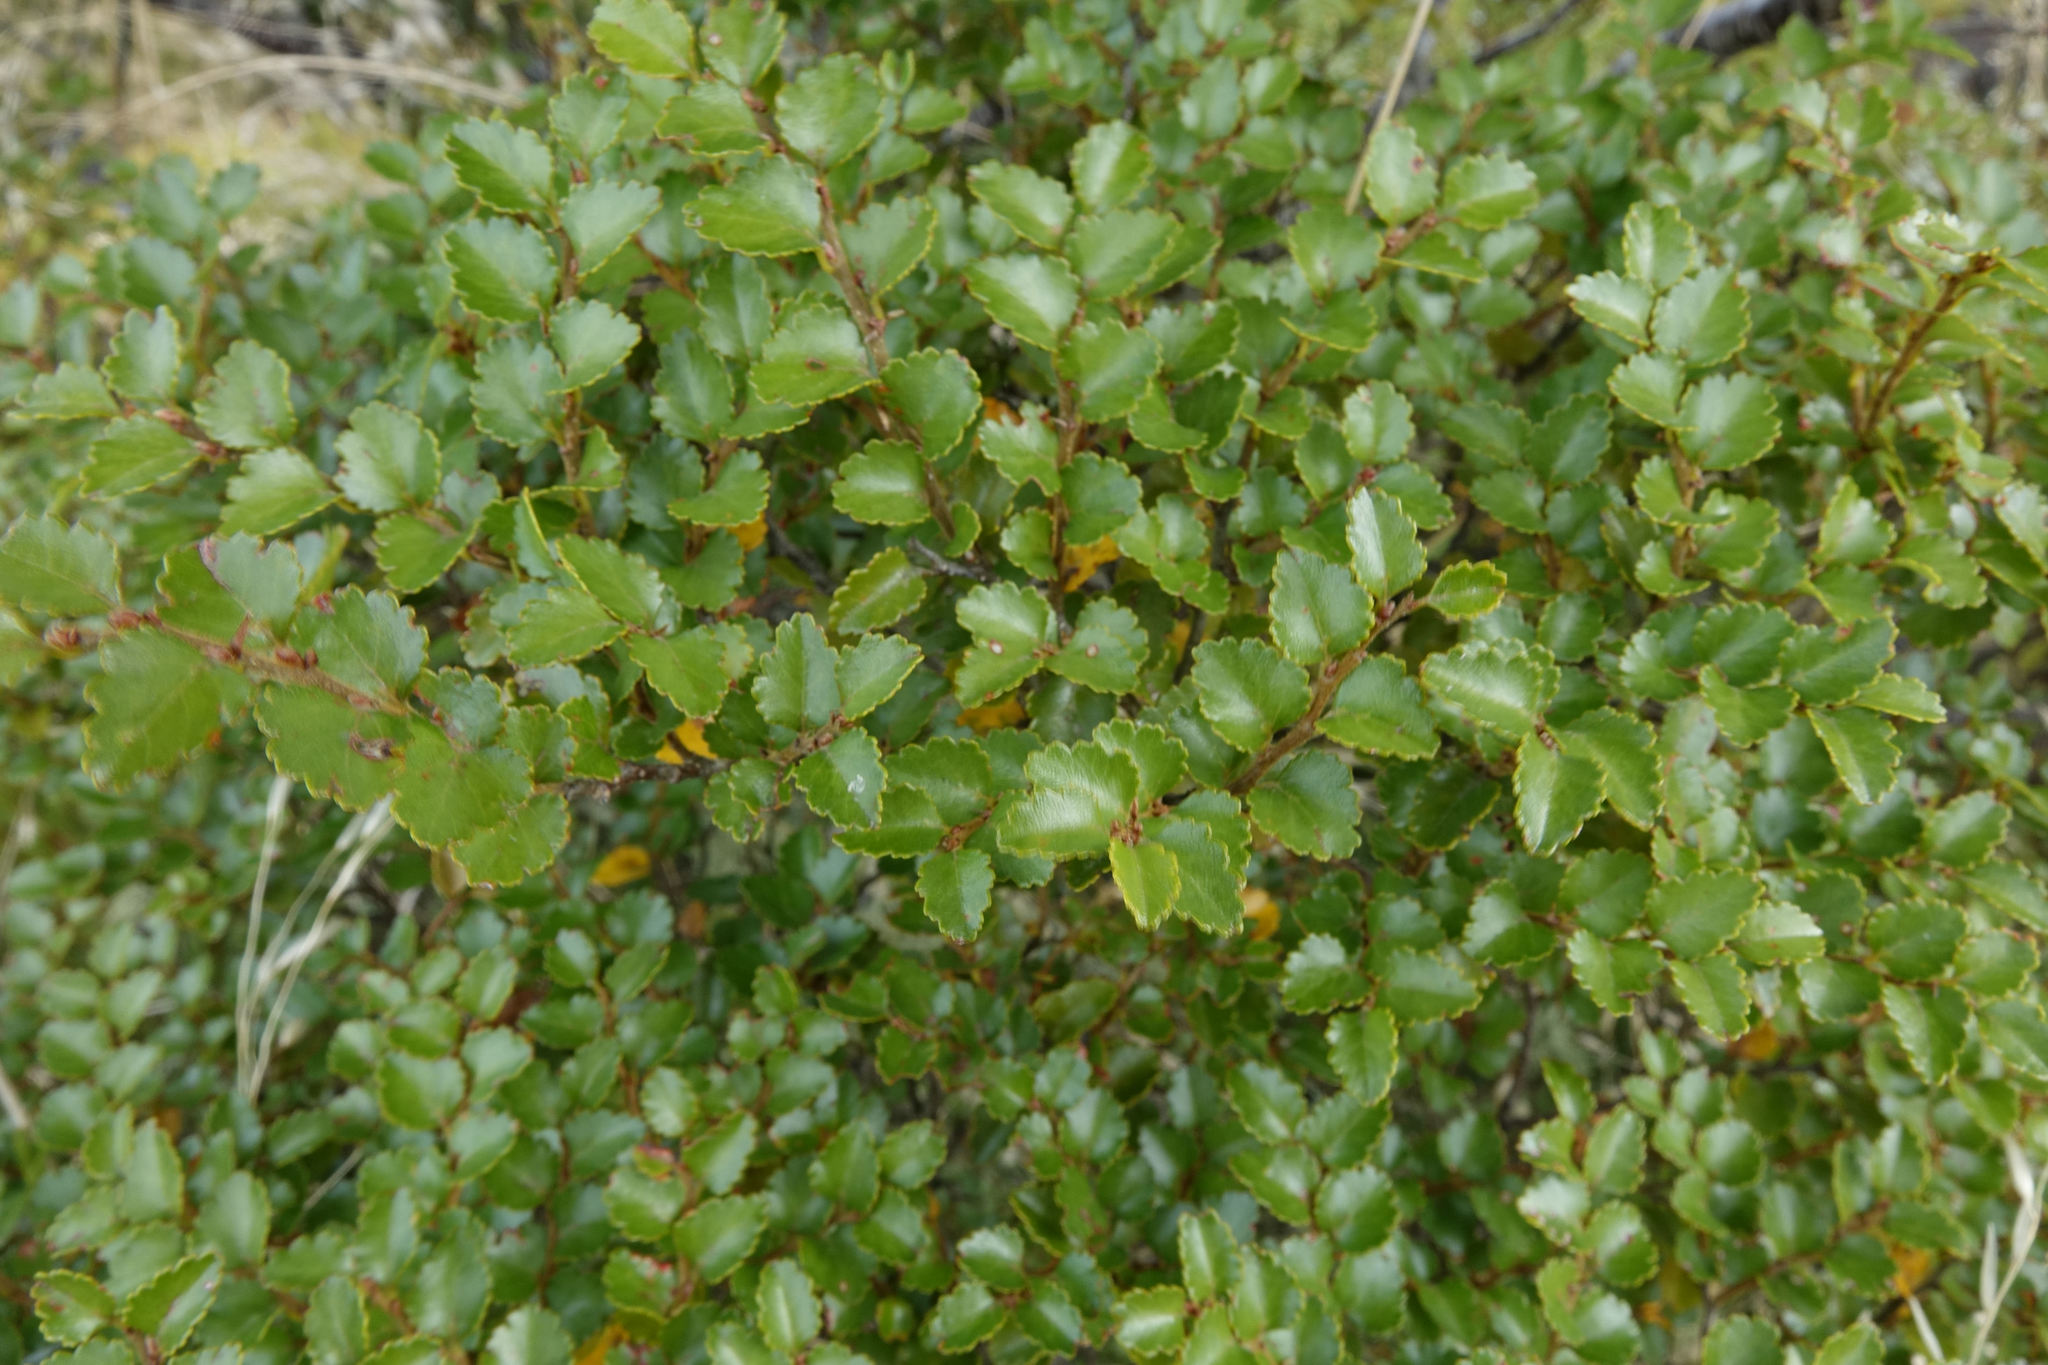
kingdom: Plantae
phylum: Tracheophyta
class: Magnoliopsida
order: Fagales
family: Nothofagaceae
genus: Nothofagus
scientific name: Nothofagus menziesii
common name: Silver beech
